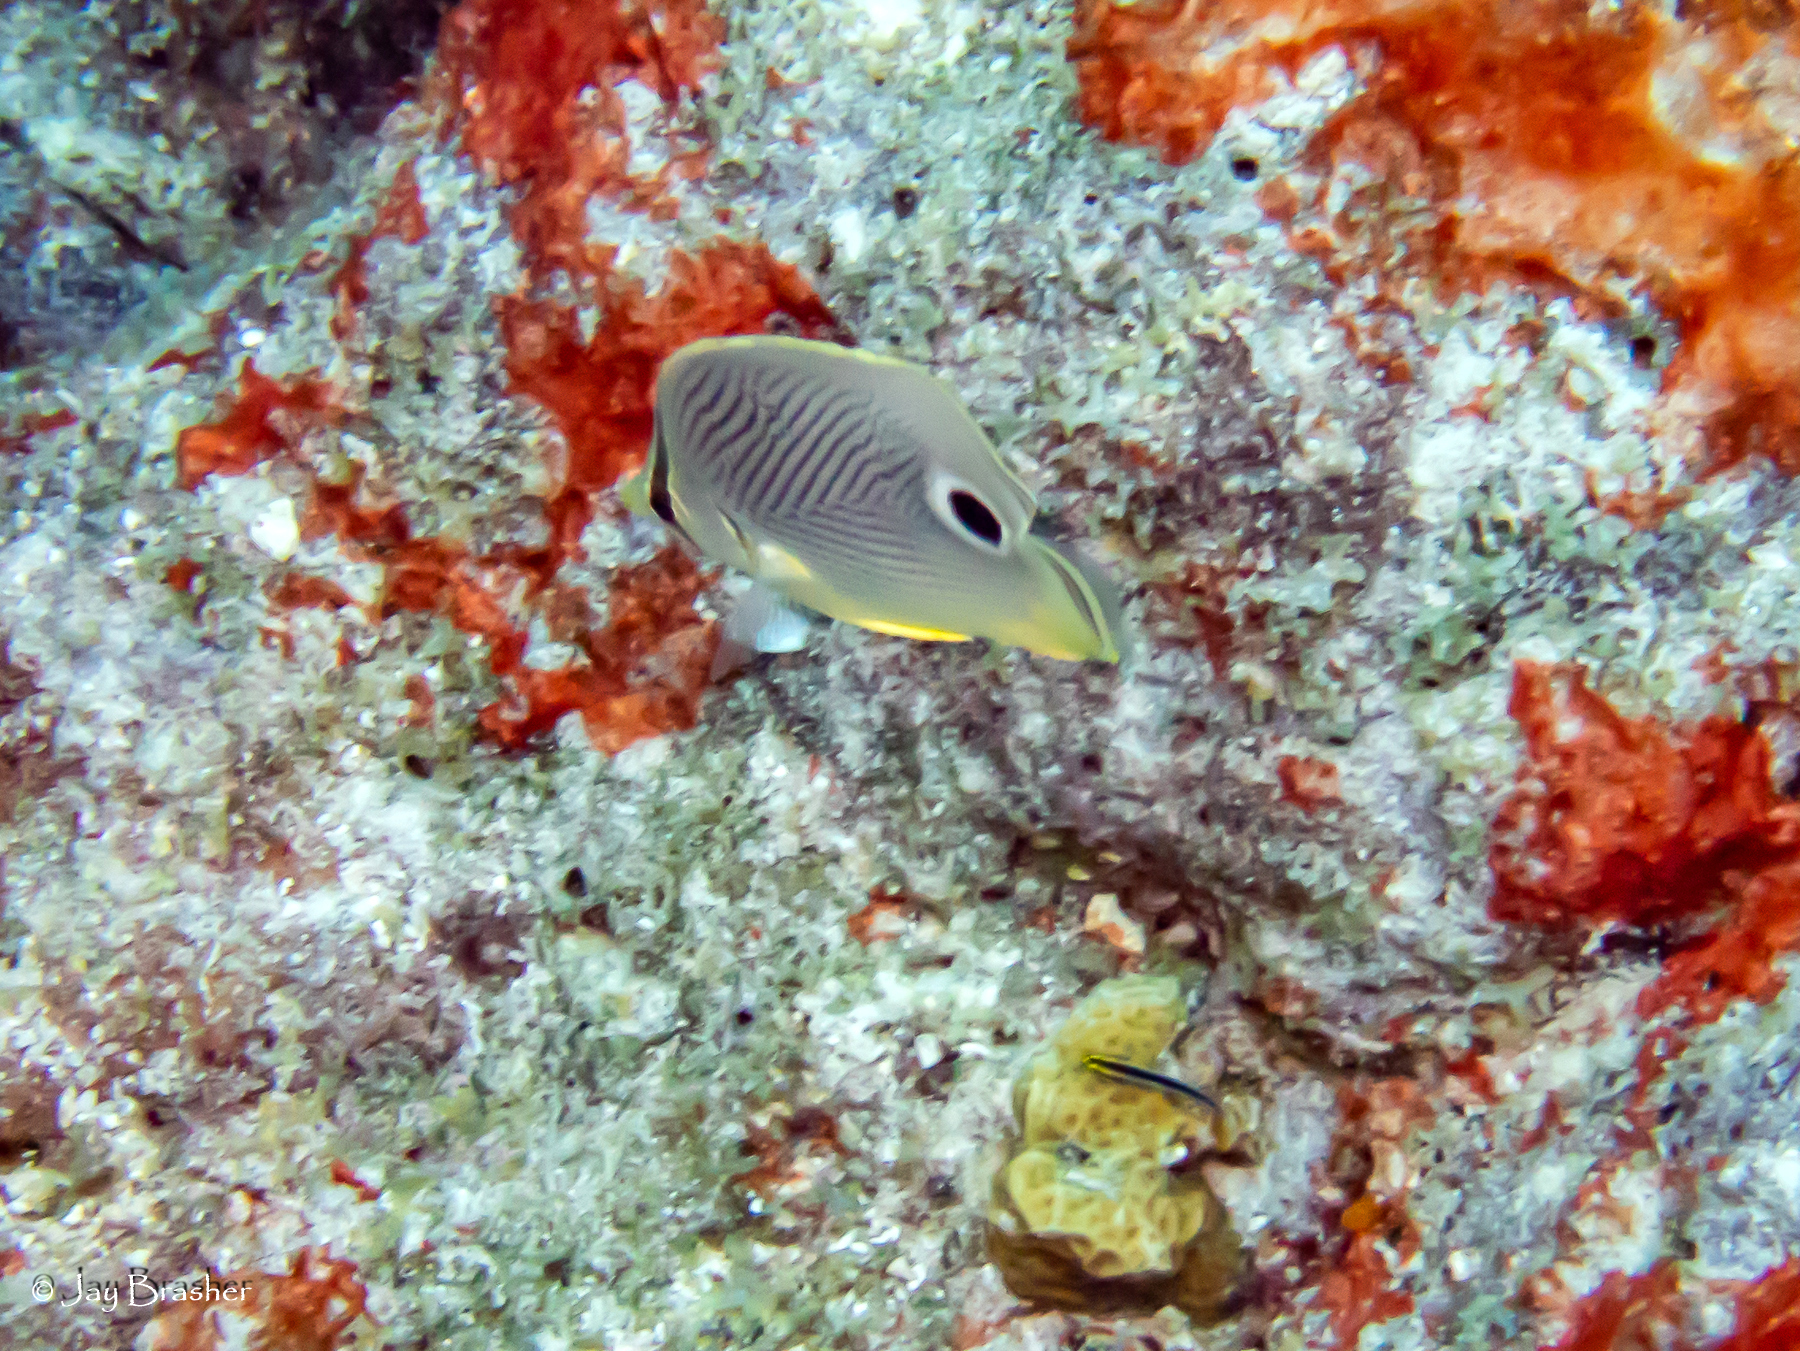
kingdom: Animalia
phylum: Chordata
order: Perciformes
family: Chaetodontidae
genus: Chaetodon
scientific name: Chaetodon capistratus
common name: Kete
